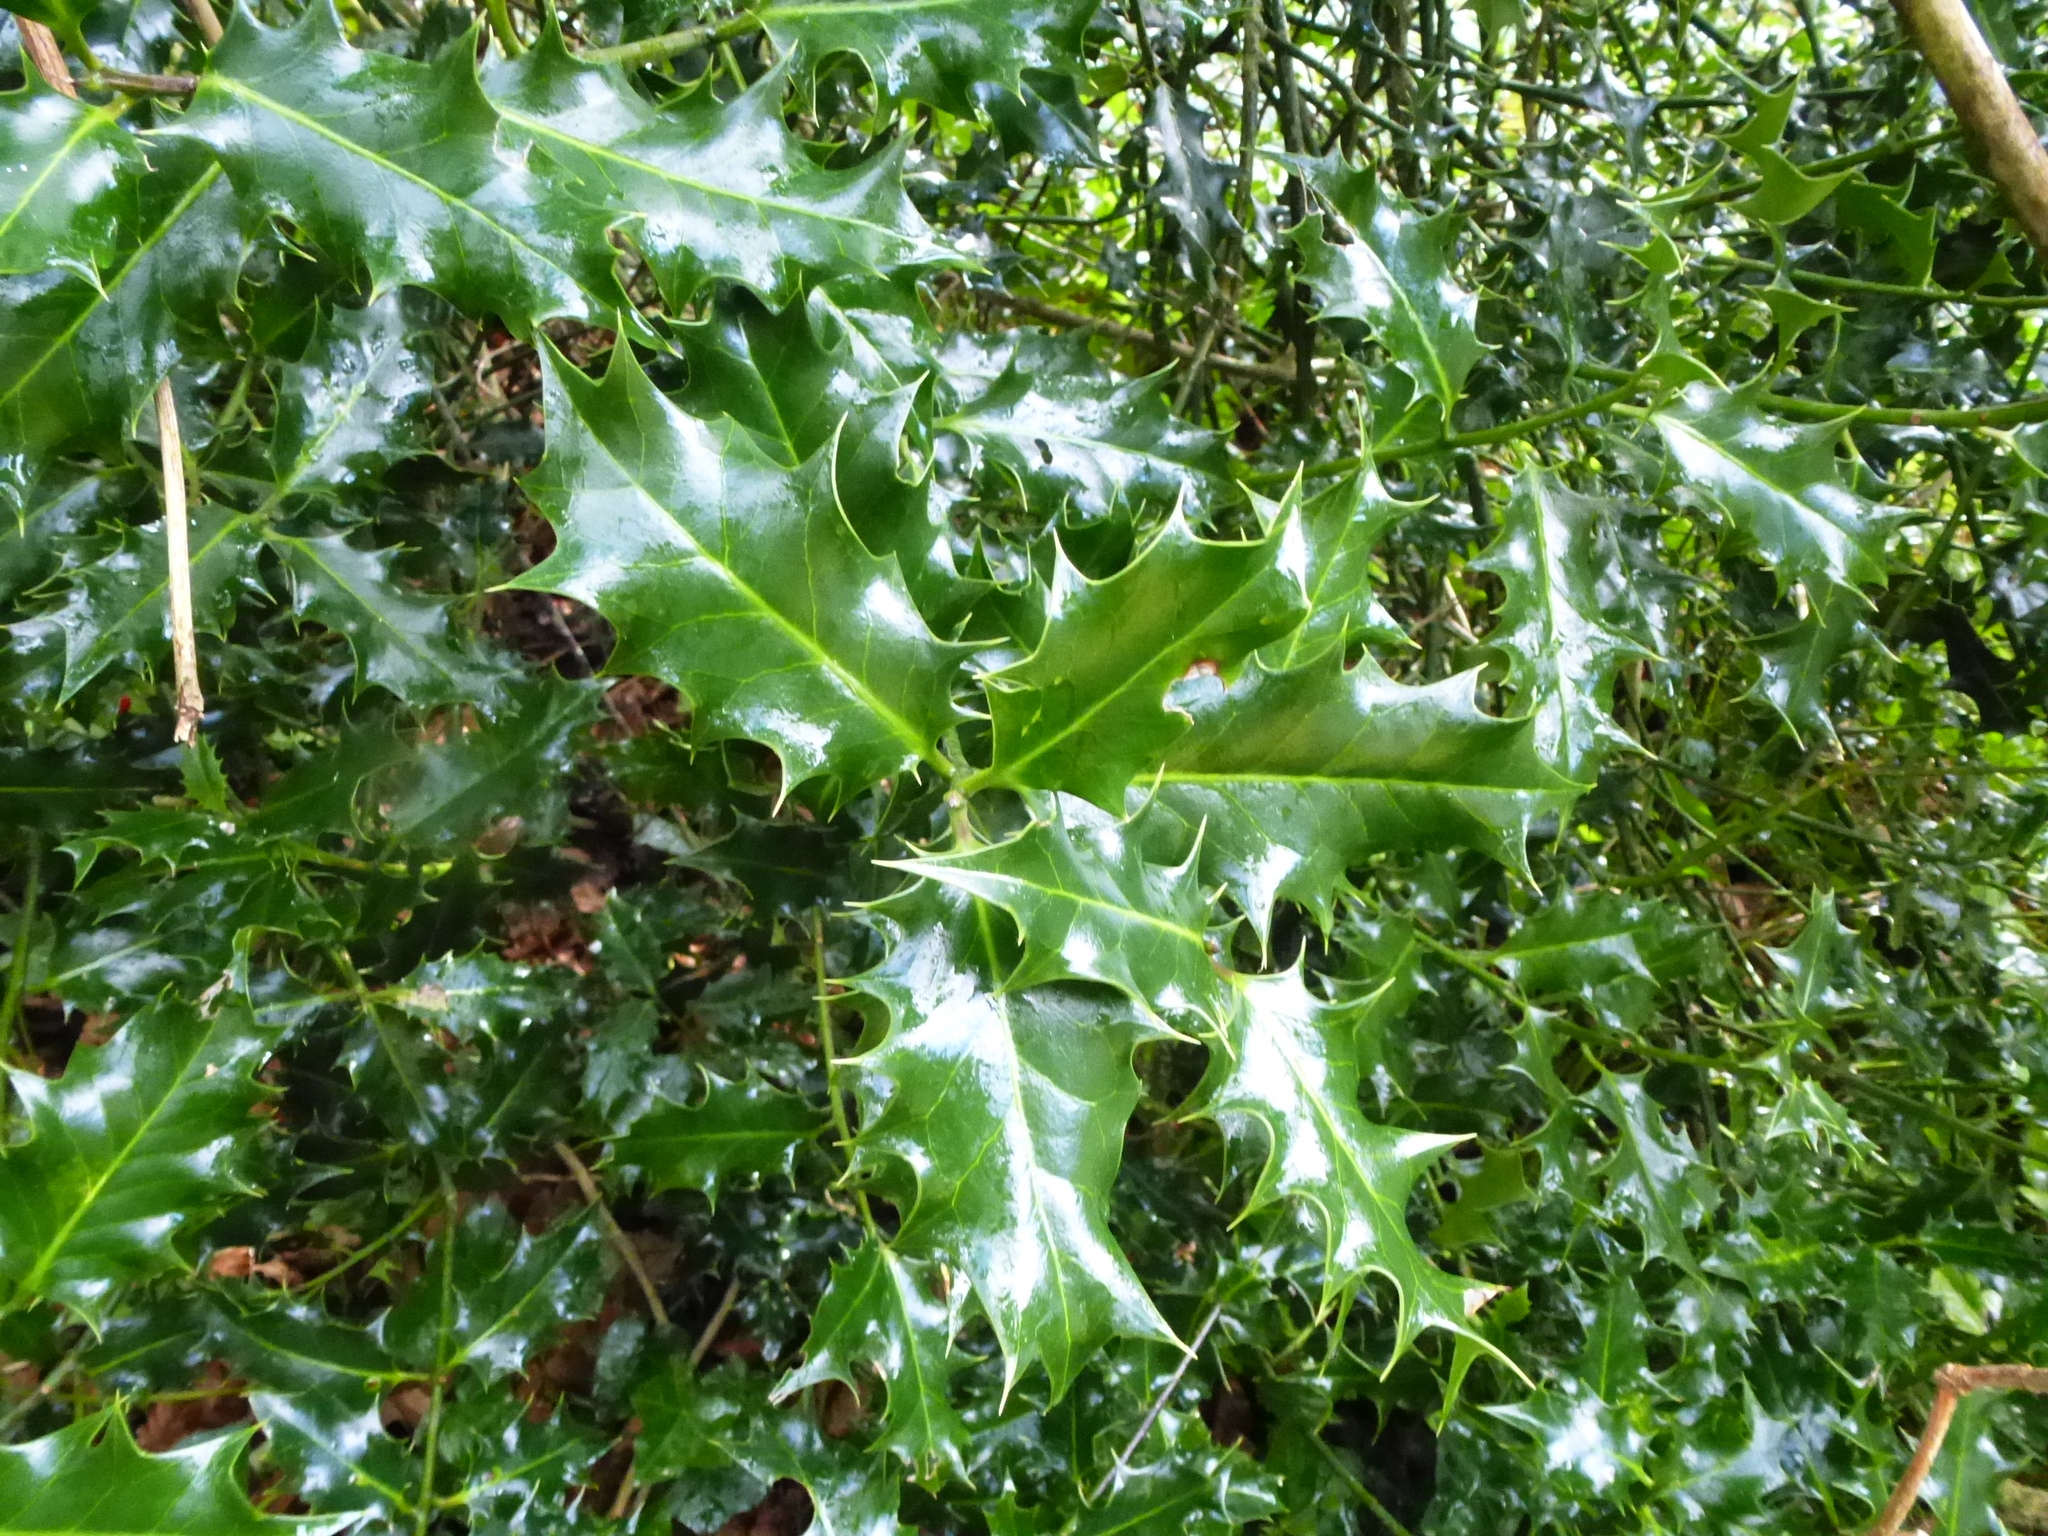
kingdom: Plantae
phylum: Tracheophyta
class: Magnoliopsida
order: Aquifoliales
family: Aquifoliaceae
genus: Ilex
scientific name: Ilex aquifolium
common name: English holly
